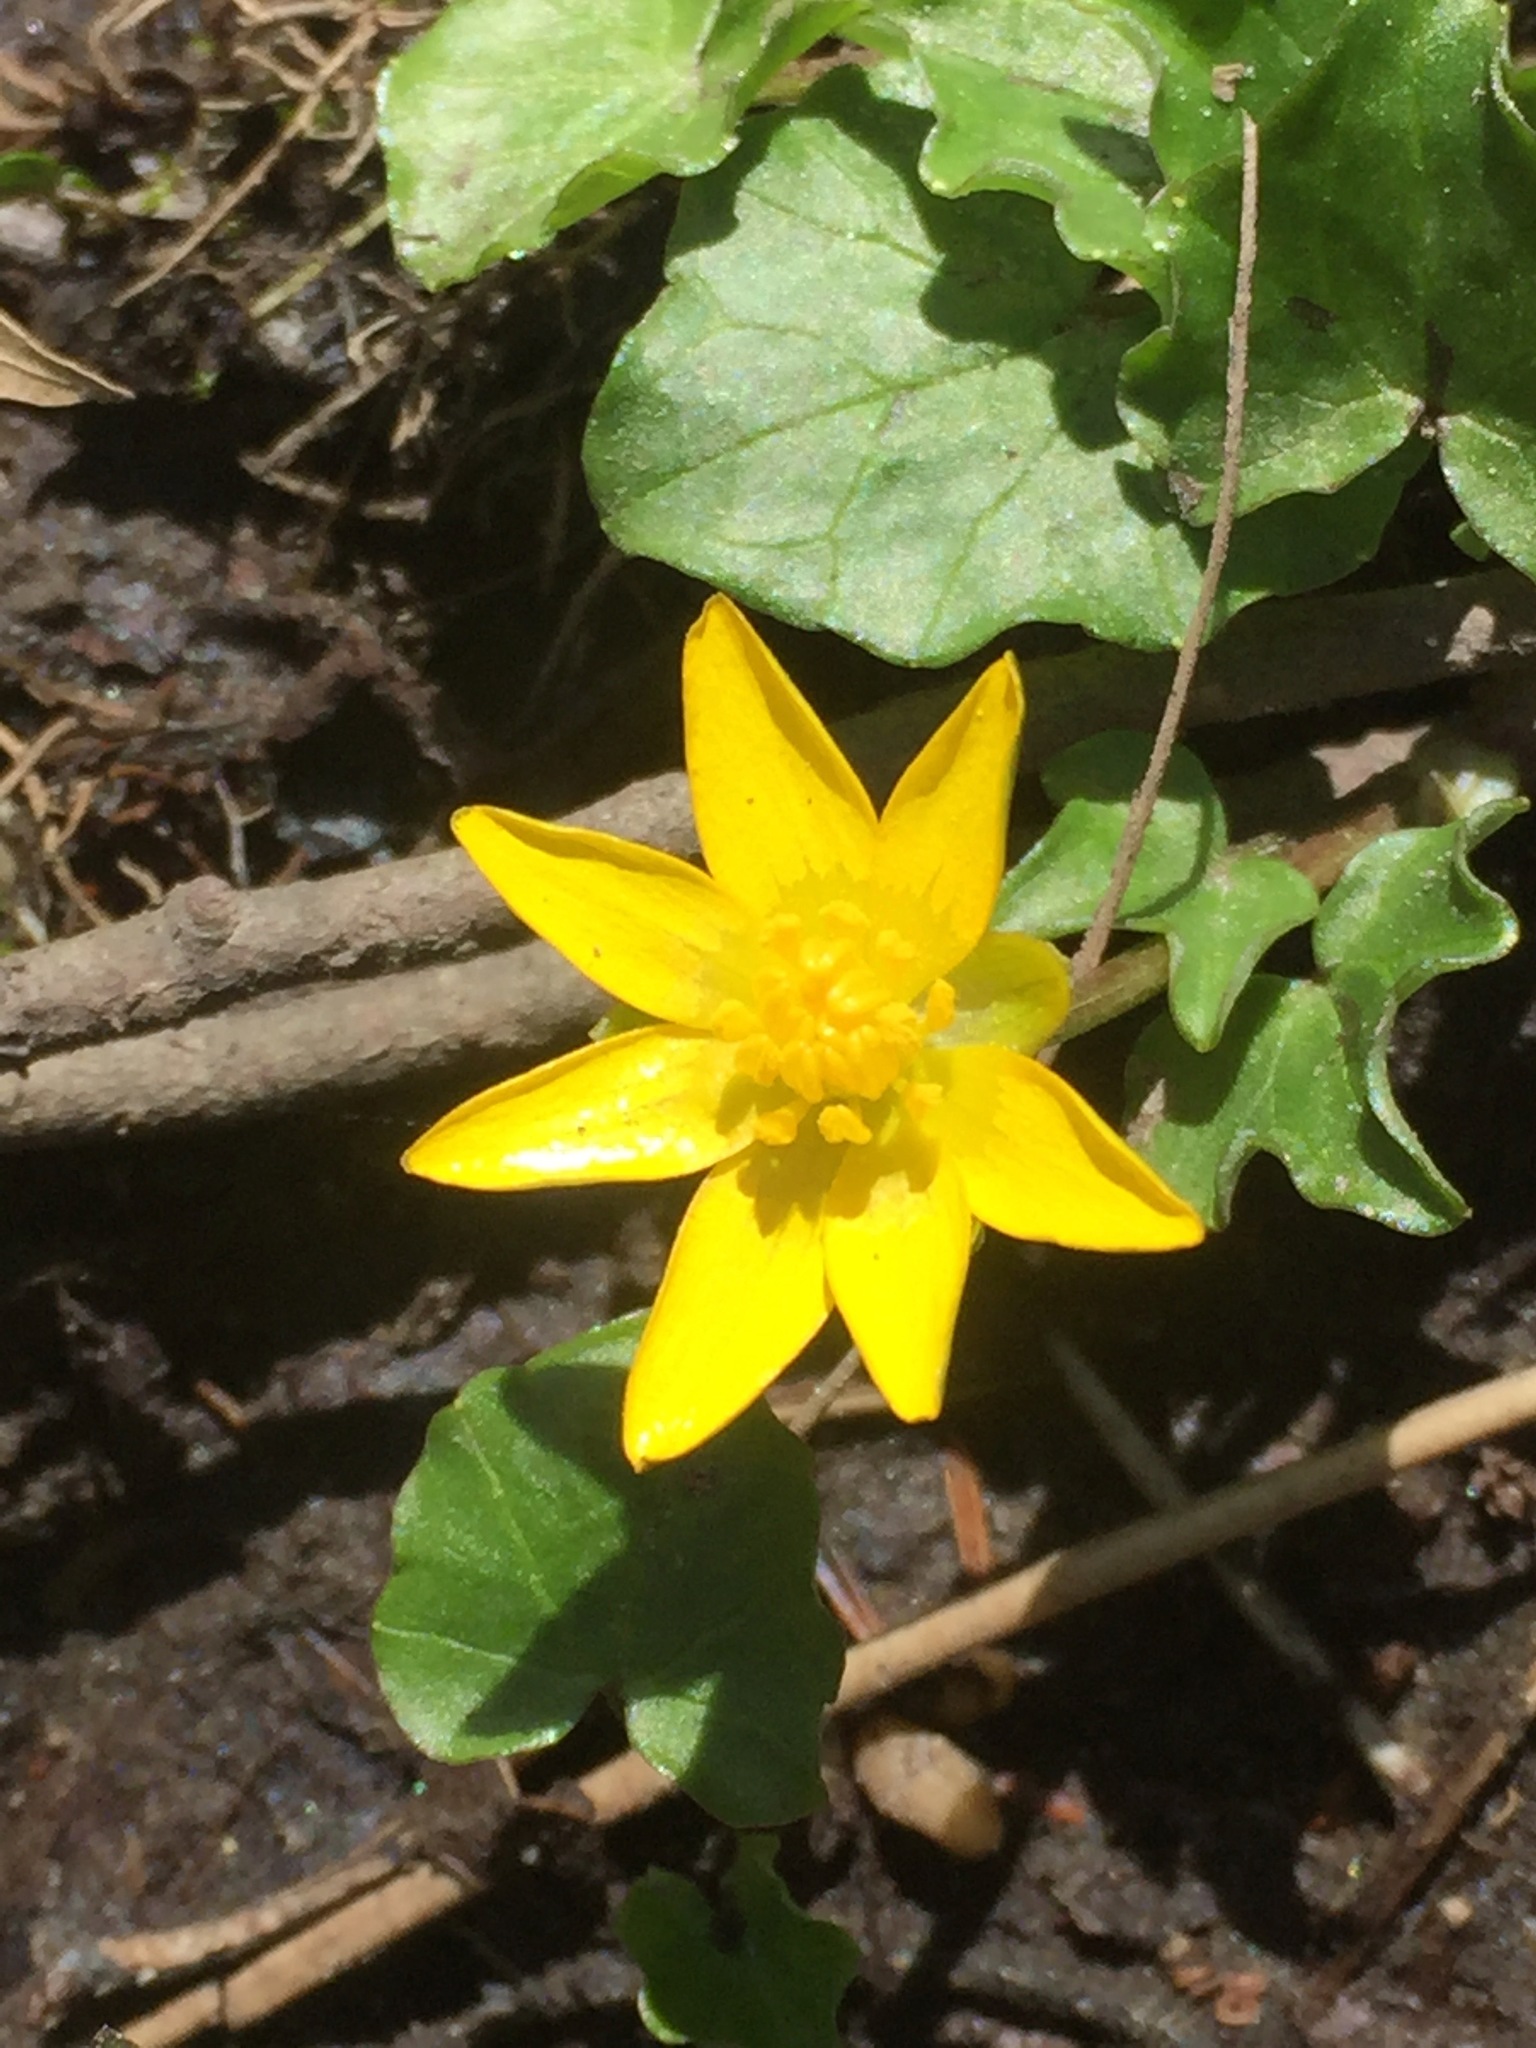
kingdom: Plantae
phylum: Tracheophyta
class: Magnoliopsida
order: Ranunculales
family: Ranunculaceae
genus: Ficaria
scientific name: Ficaria verna
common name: Lesser celandine
